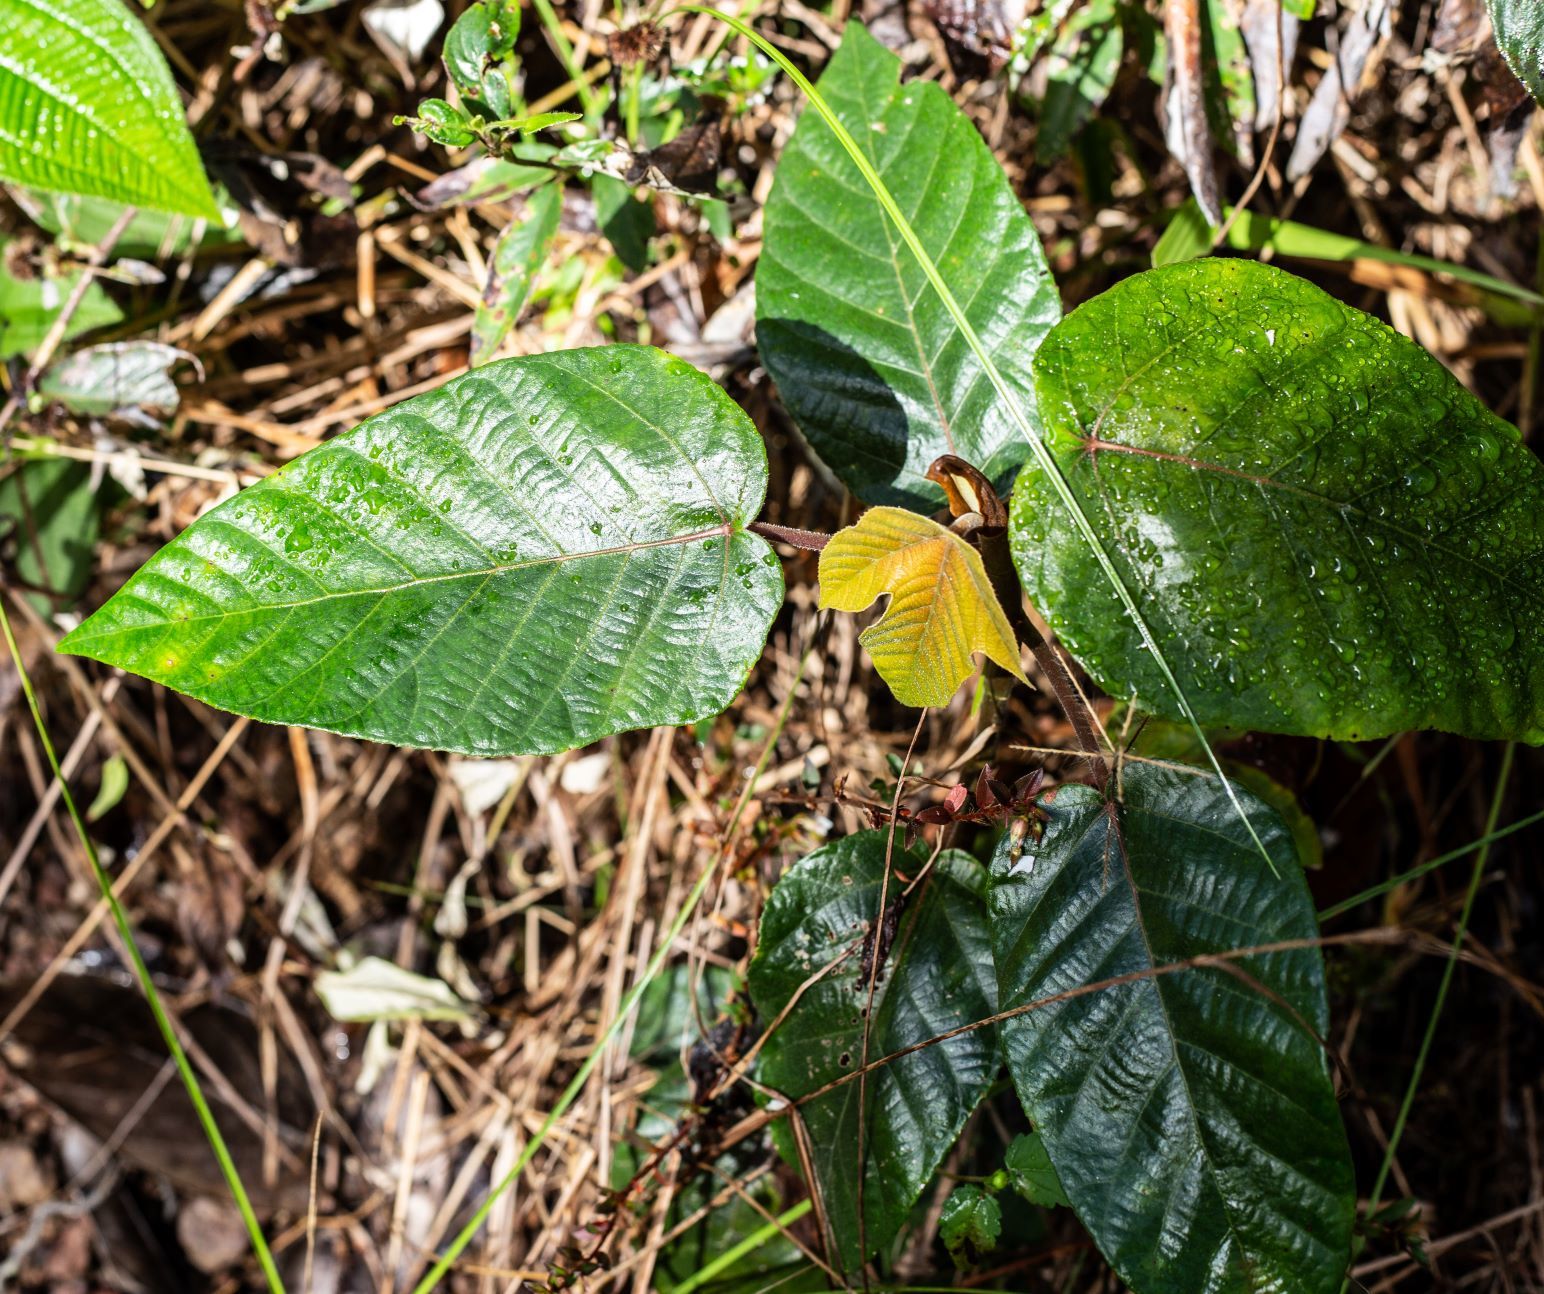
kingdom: Plantae
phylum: Tracheophyta
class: Magnoliopsida
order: Rosales
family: Urticaceae
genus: Cecropia
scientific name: Cecropia obtusa
